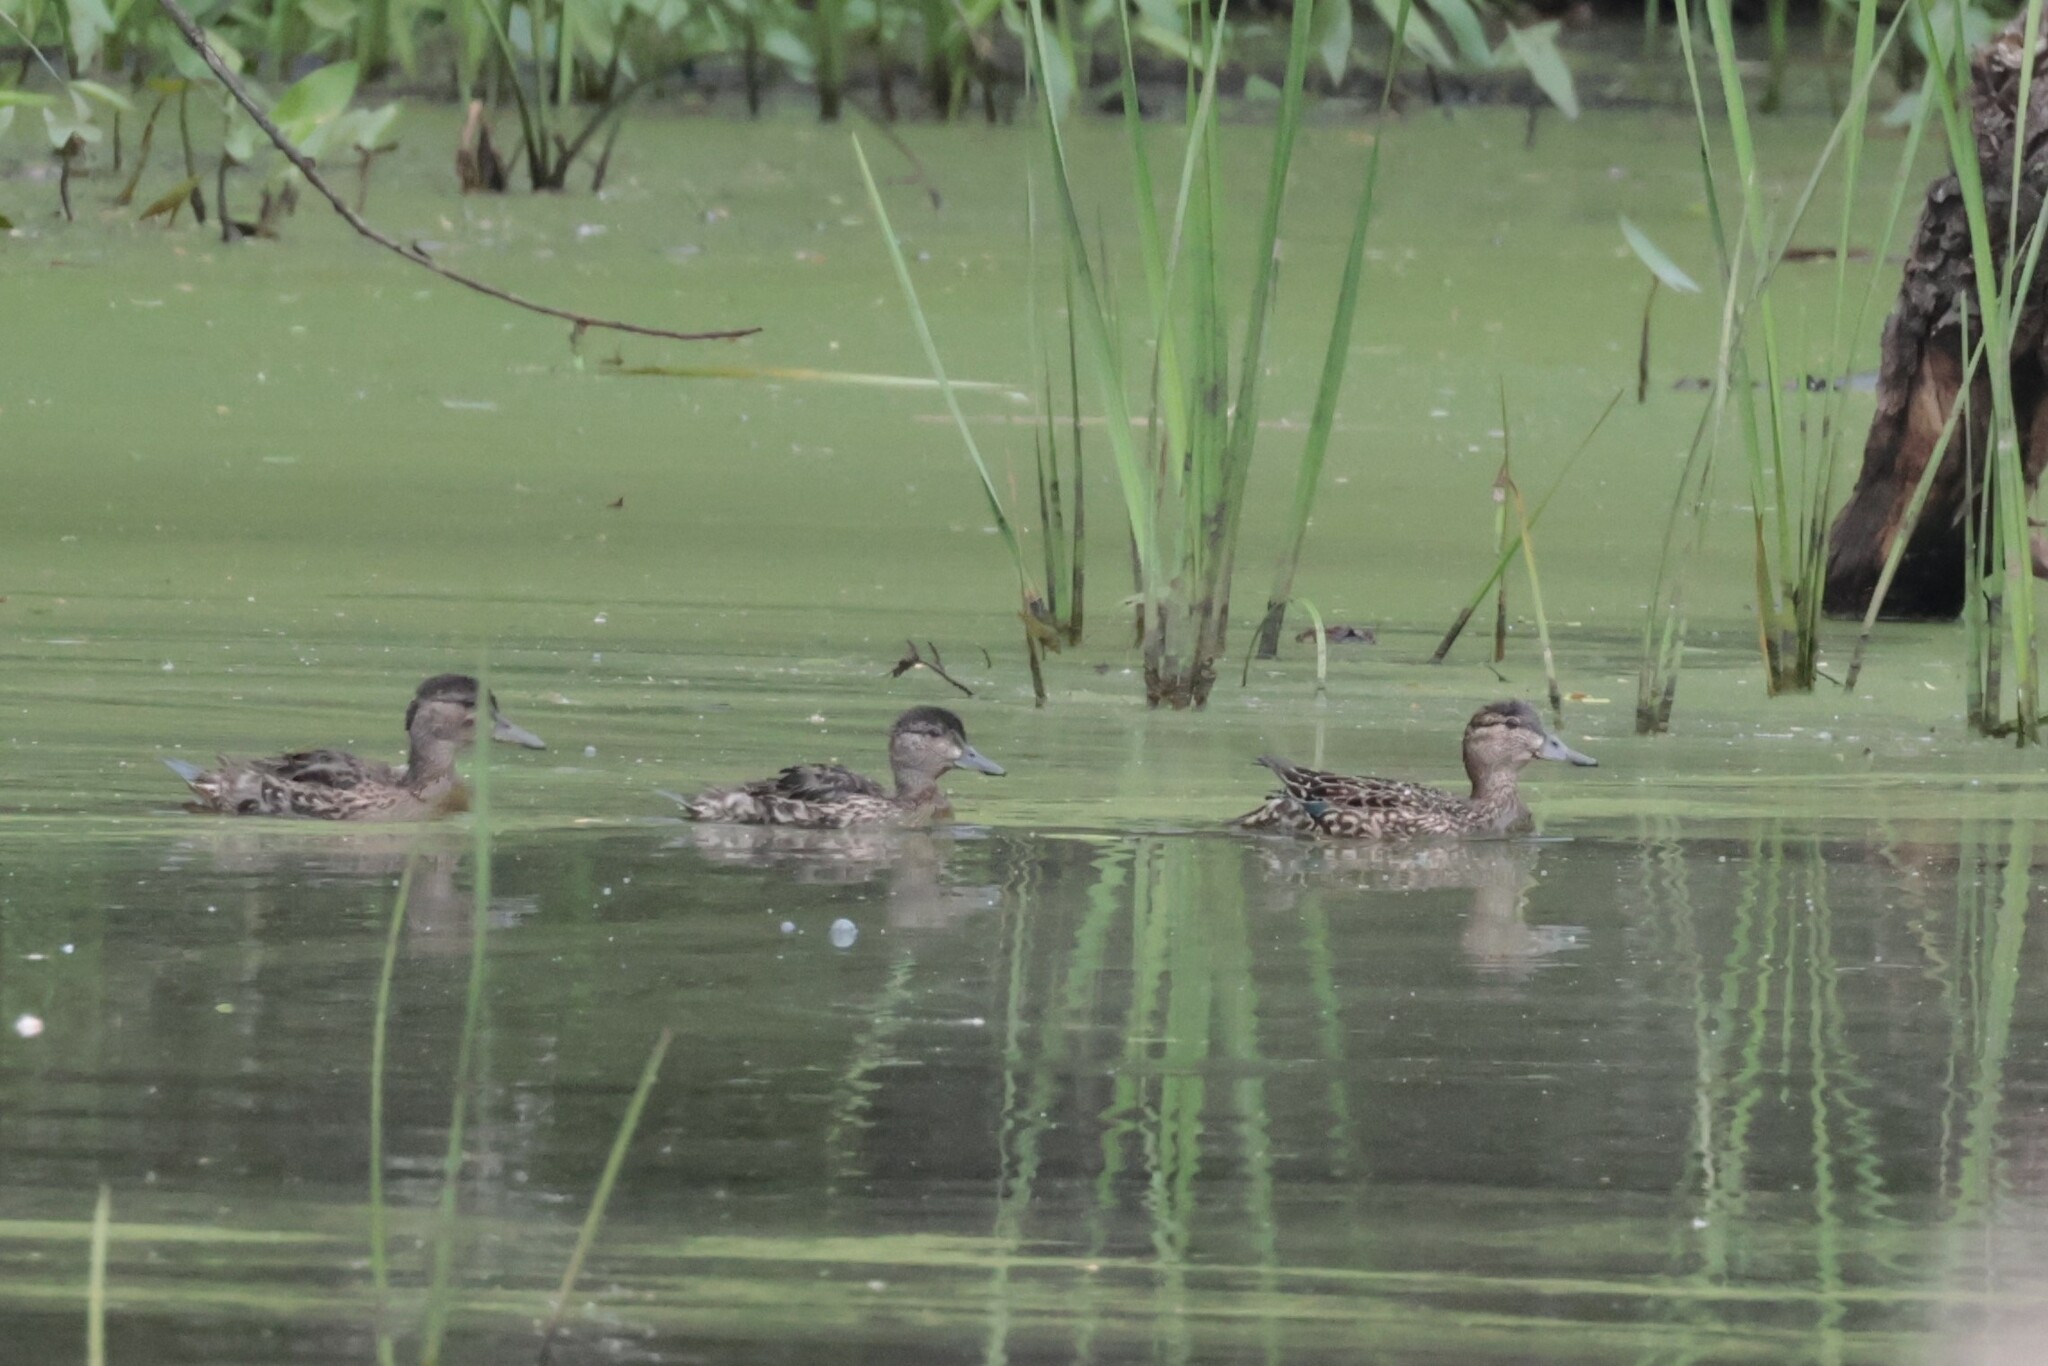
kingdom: Animalia
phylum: Chordata
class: Aves
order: Anseriformes
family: Anatidae
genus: Anas
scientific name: Anas crecca
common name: Eurasian teal
